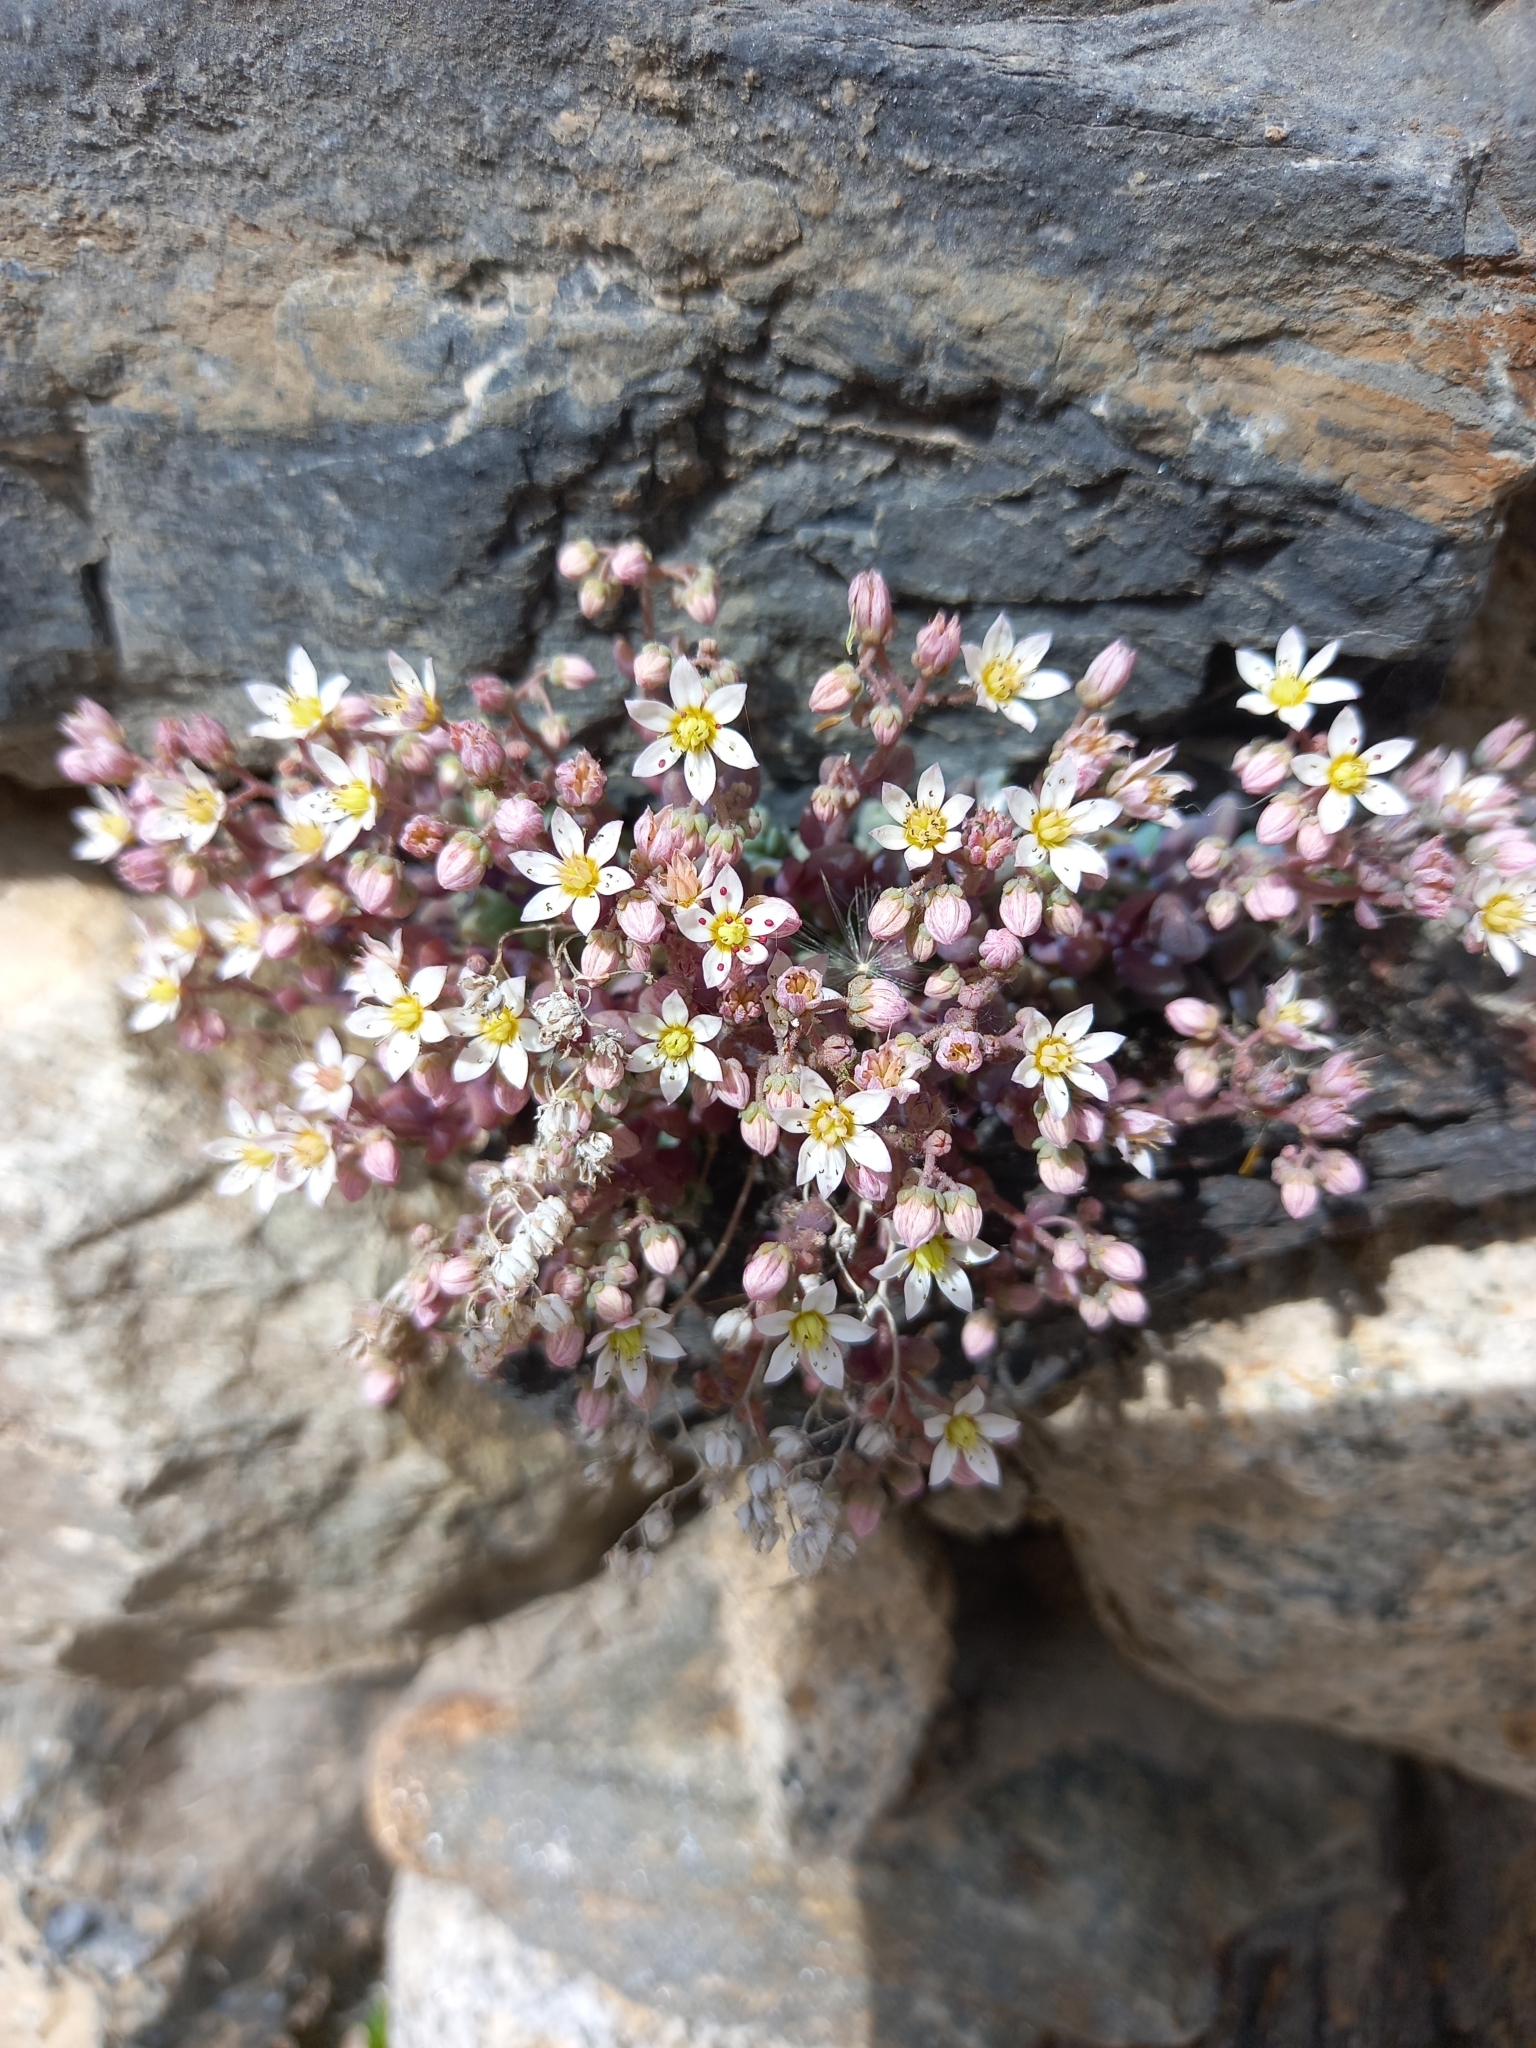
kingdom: Plantae
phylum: Tracheophyta
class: Magnoliopsida
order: Saxifragales
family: Crassulaceae
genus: Sedum
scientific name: Sedum dasyphyllum
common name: Thick-leaf stonecrop
